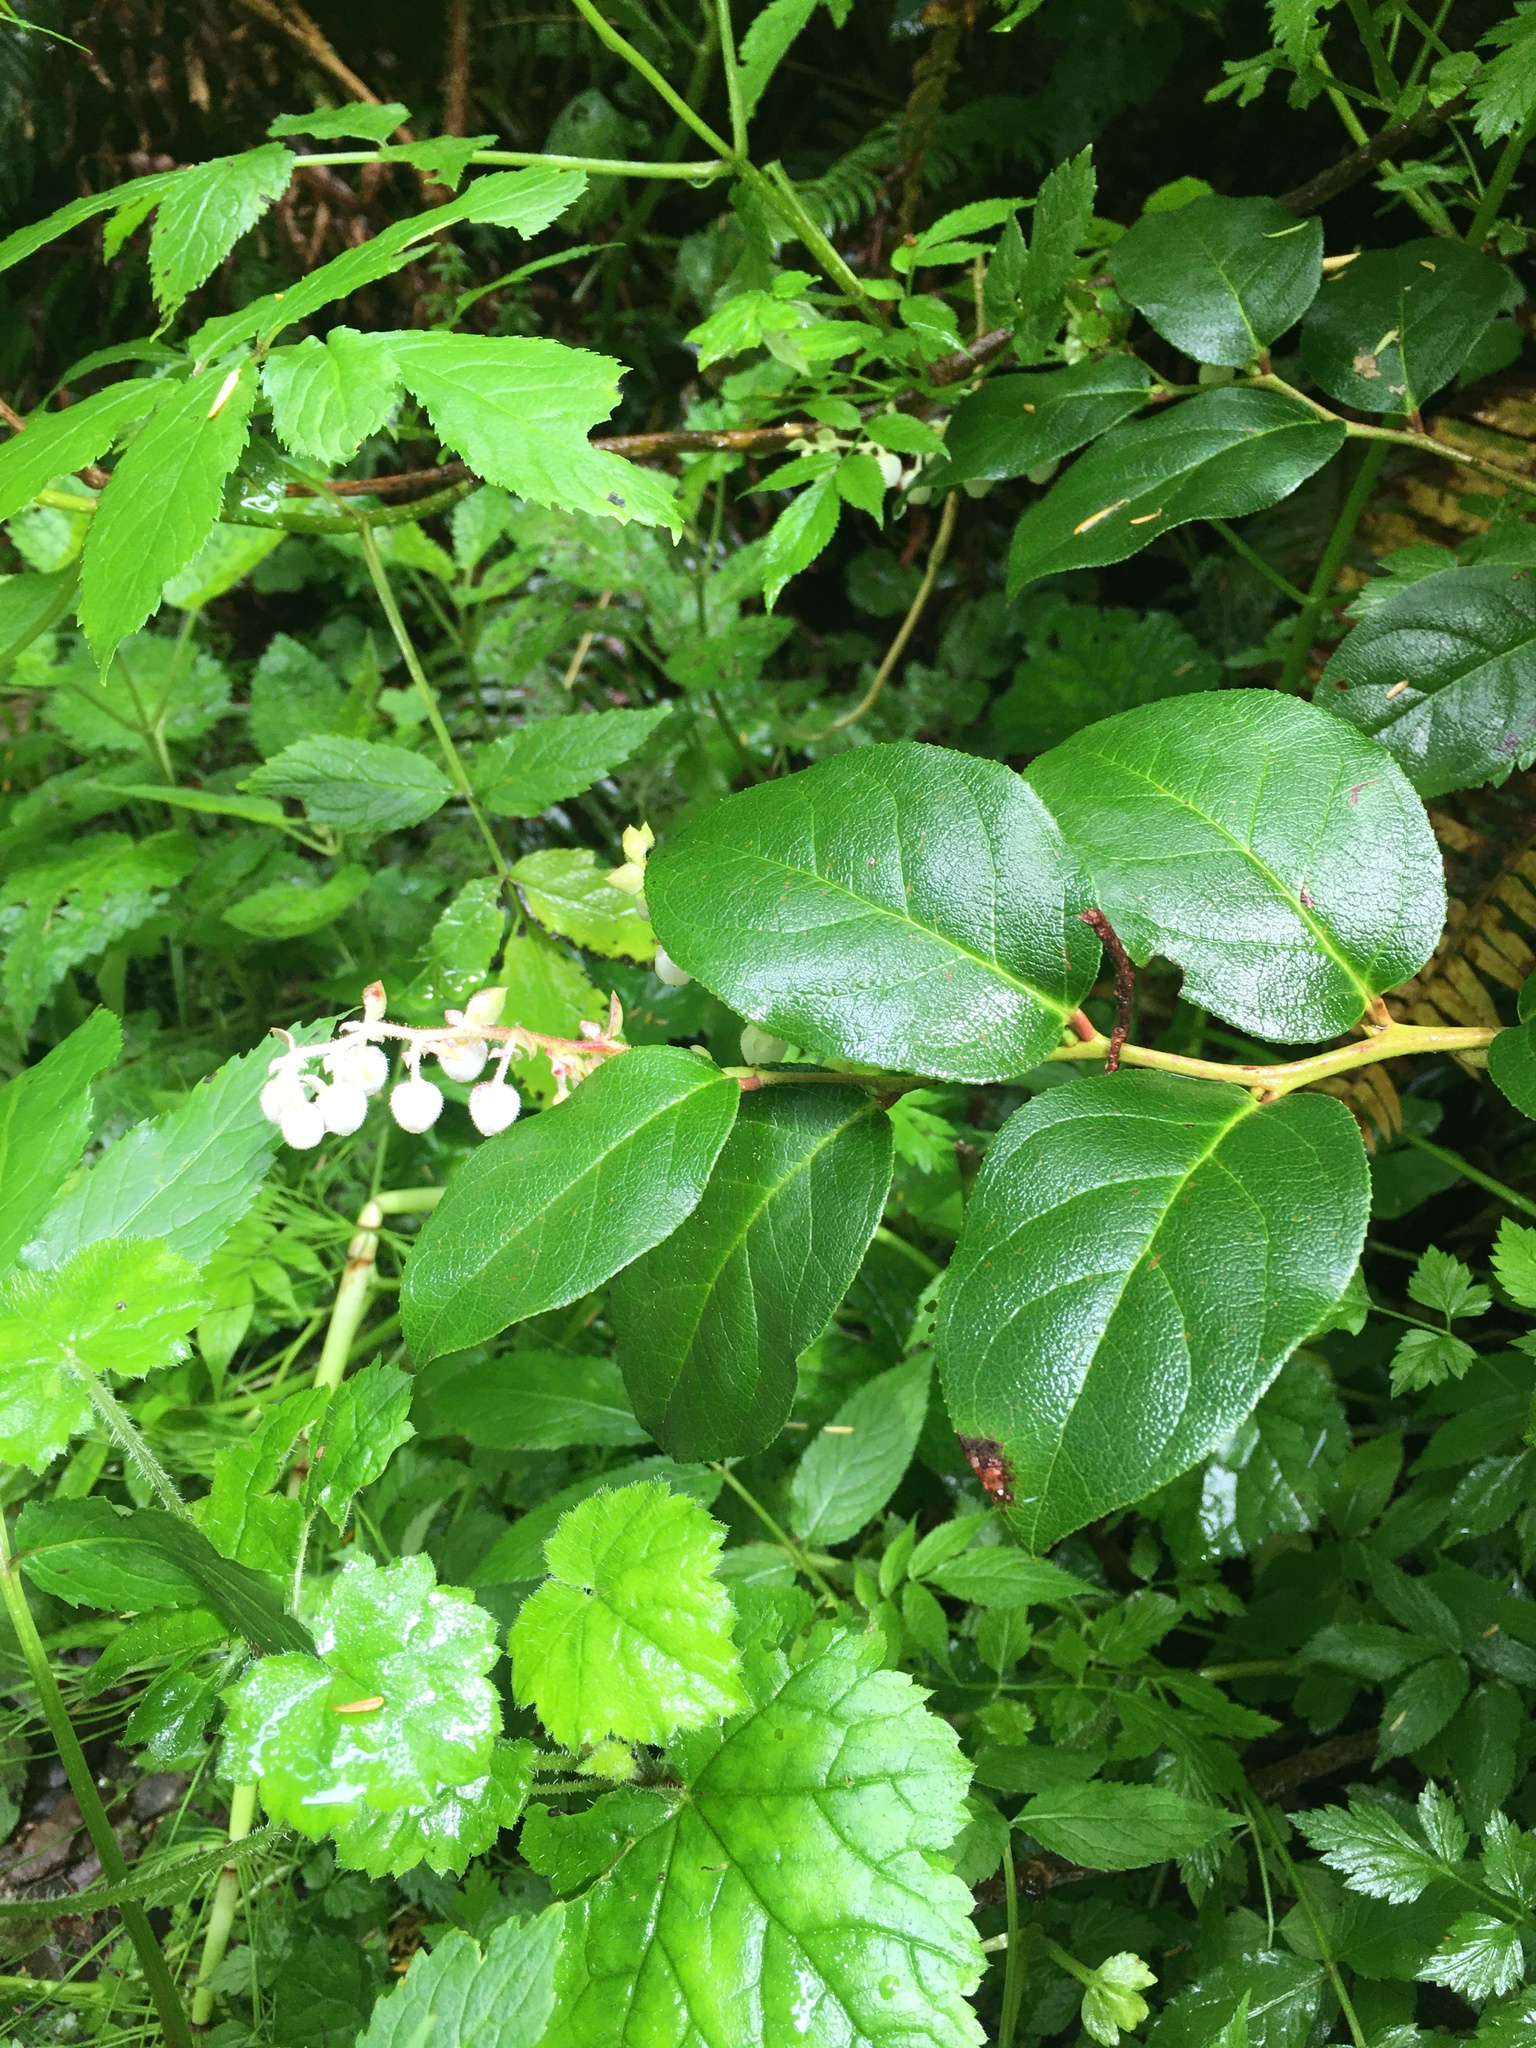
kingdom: Plantae
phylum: Tracheophyta
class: Magnoliopsida
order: Ericales
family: Ericaceae
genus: Gaultheria
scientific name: Gaultheria shallon
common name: Shallon
